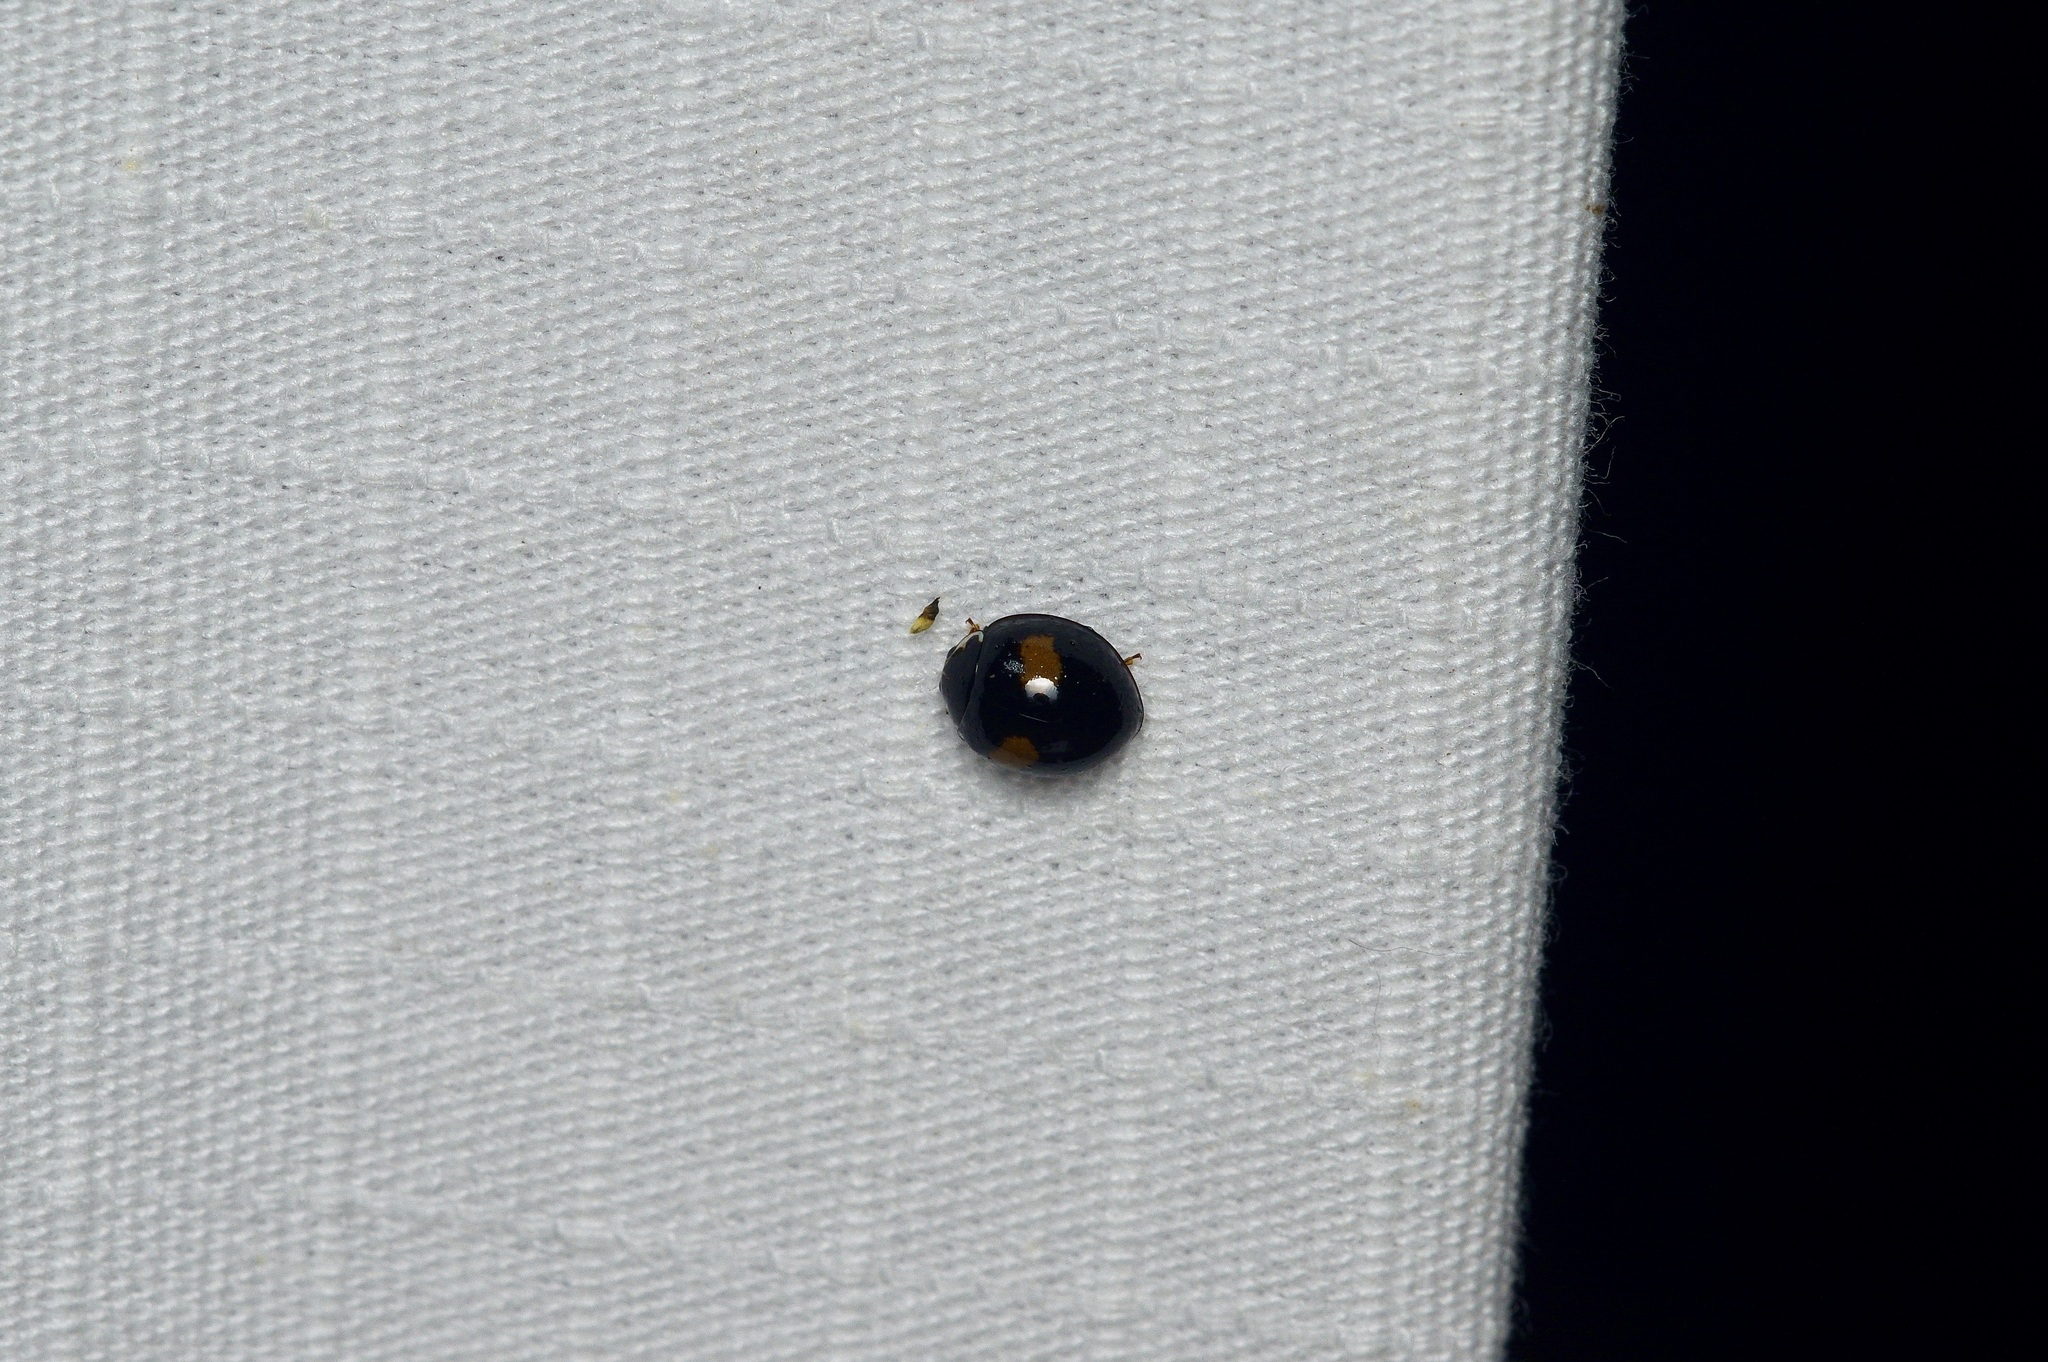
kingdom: Animalia
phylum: Arthropoda
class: Insecta
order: Coleoptera
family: Coccinellidae
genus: Olla
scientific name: Olla v-nigrum
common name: Ashy gray lady beetle
